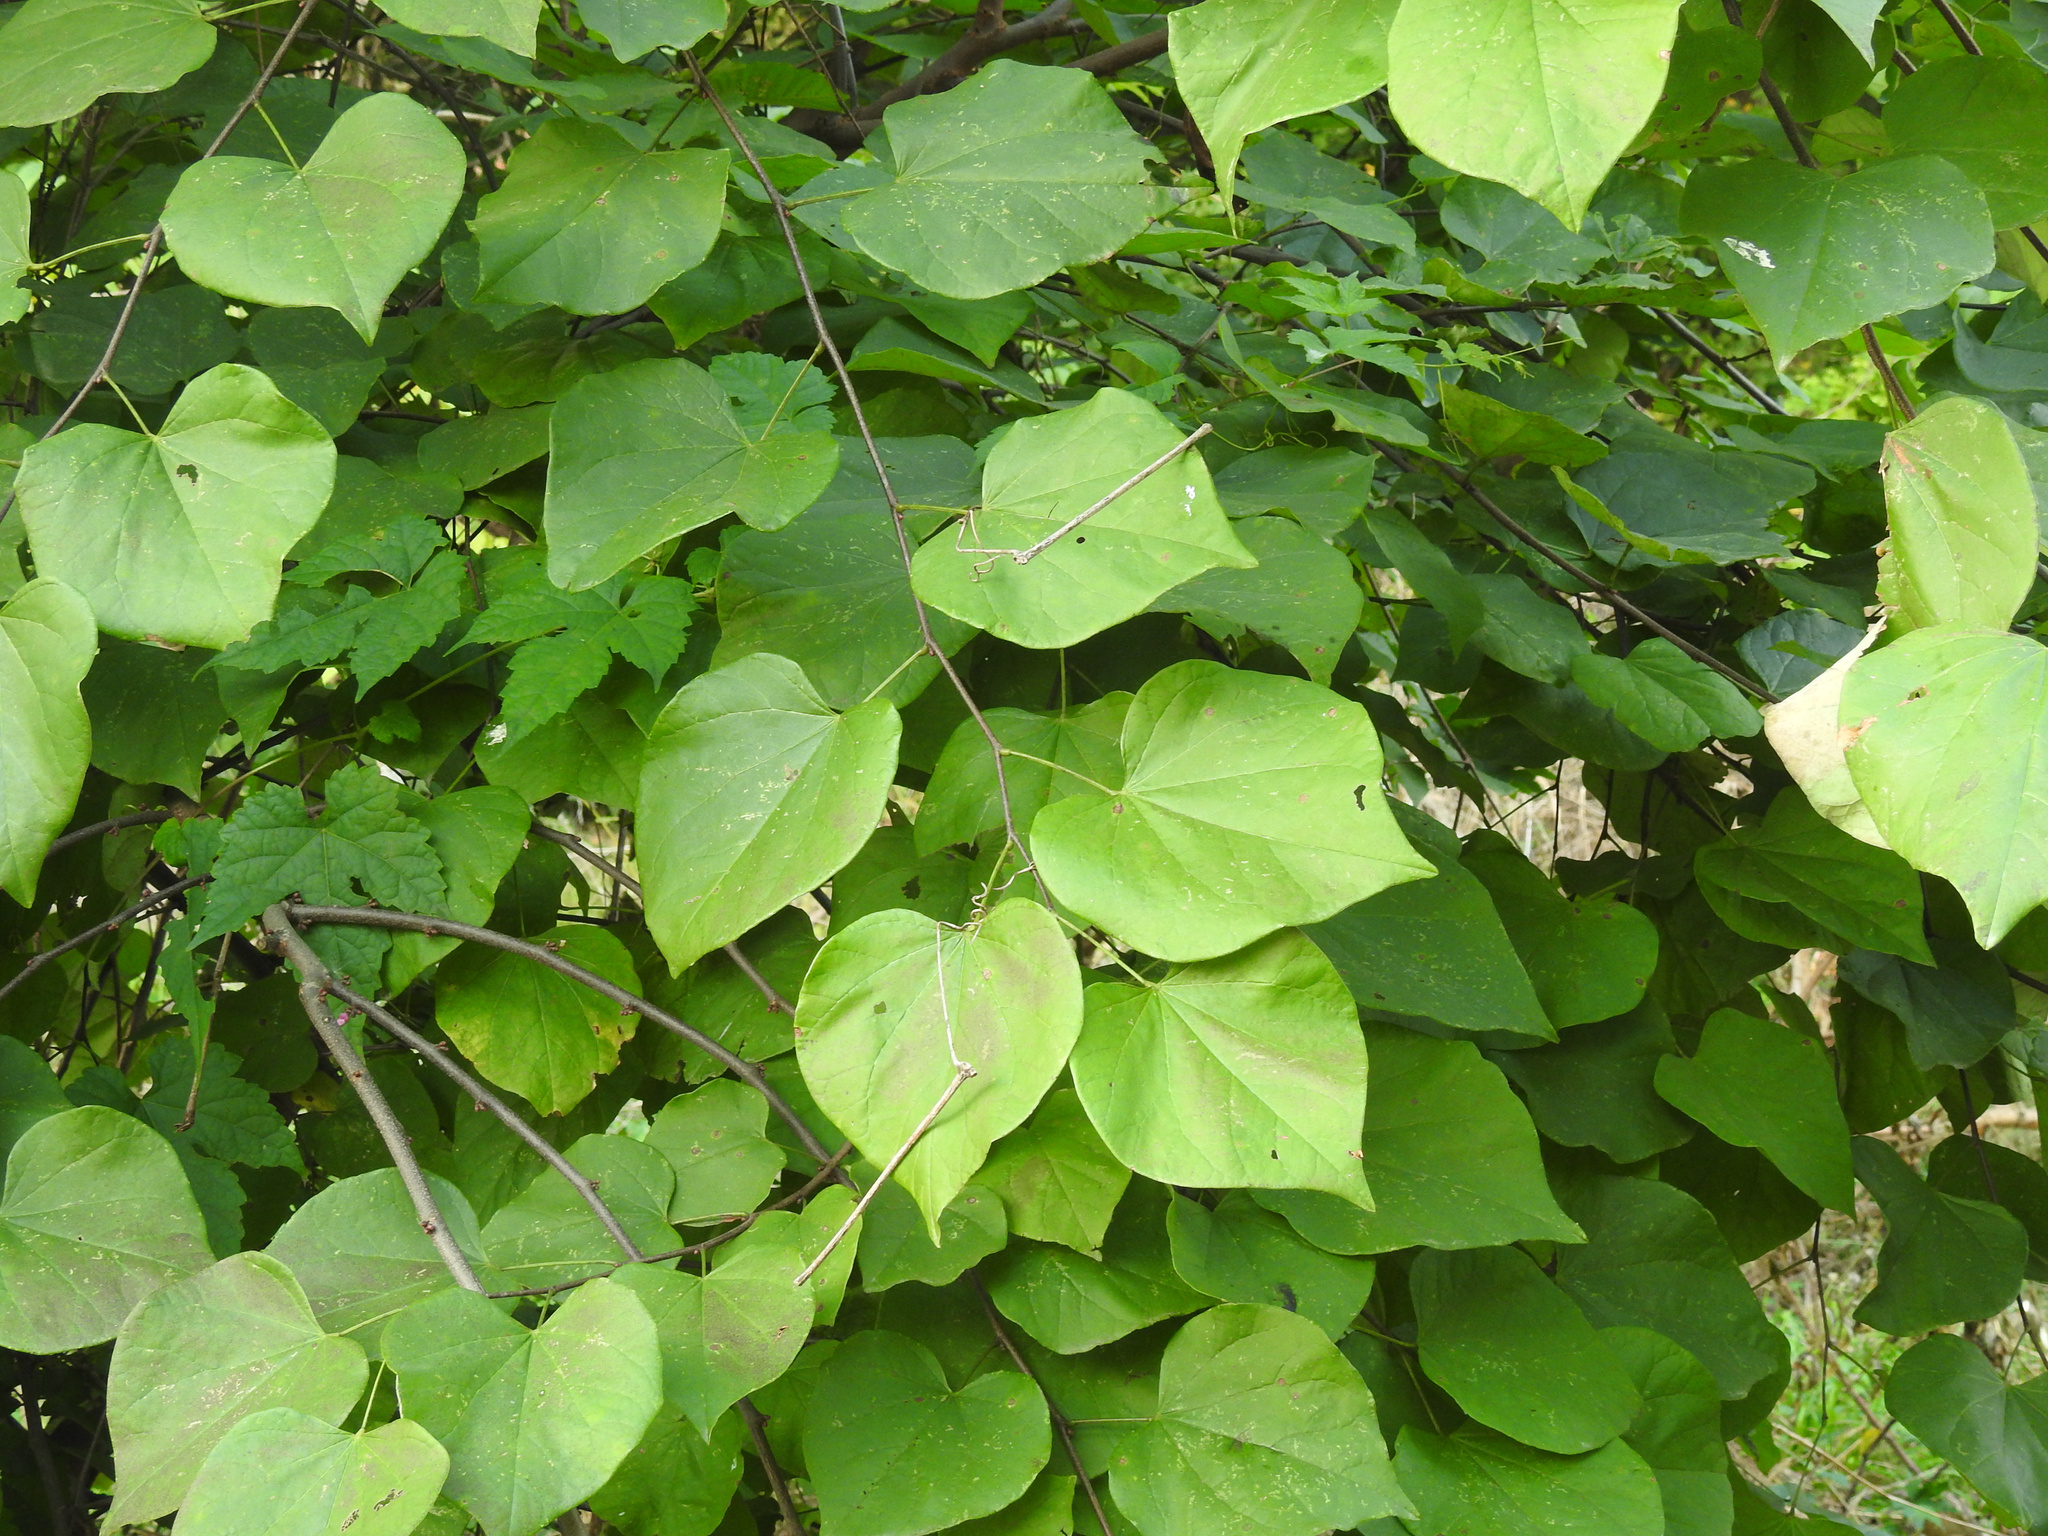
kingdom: Plantae
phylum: Tracheophyta
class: Magnoliopsida
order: Fabales
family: Fabaceae
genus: Cercis
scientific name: Cercis canadensis
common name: Eastern redbud
